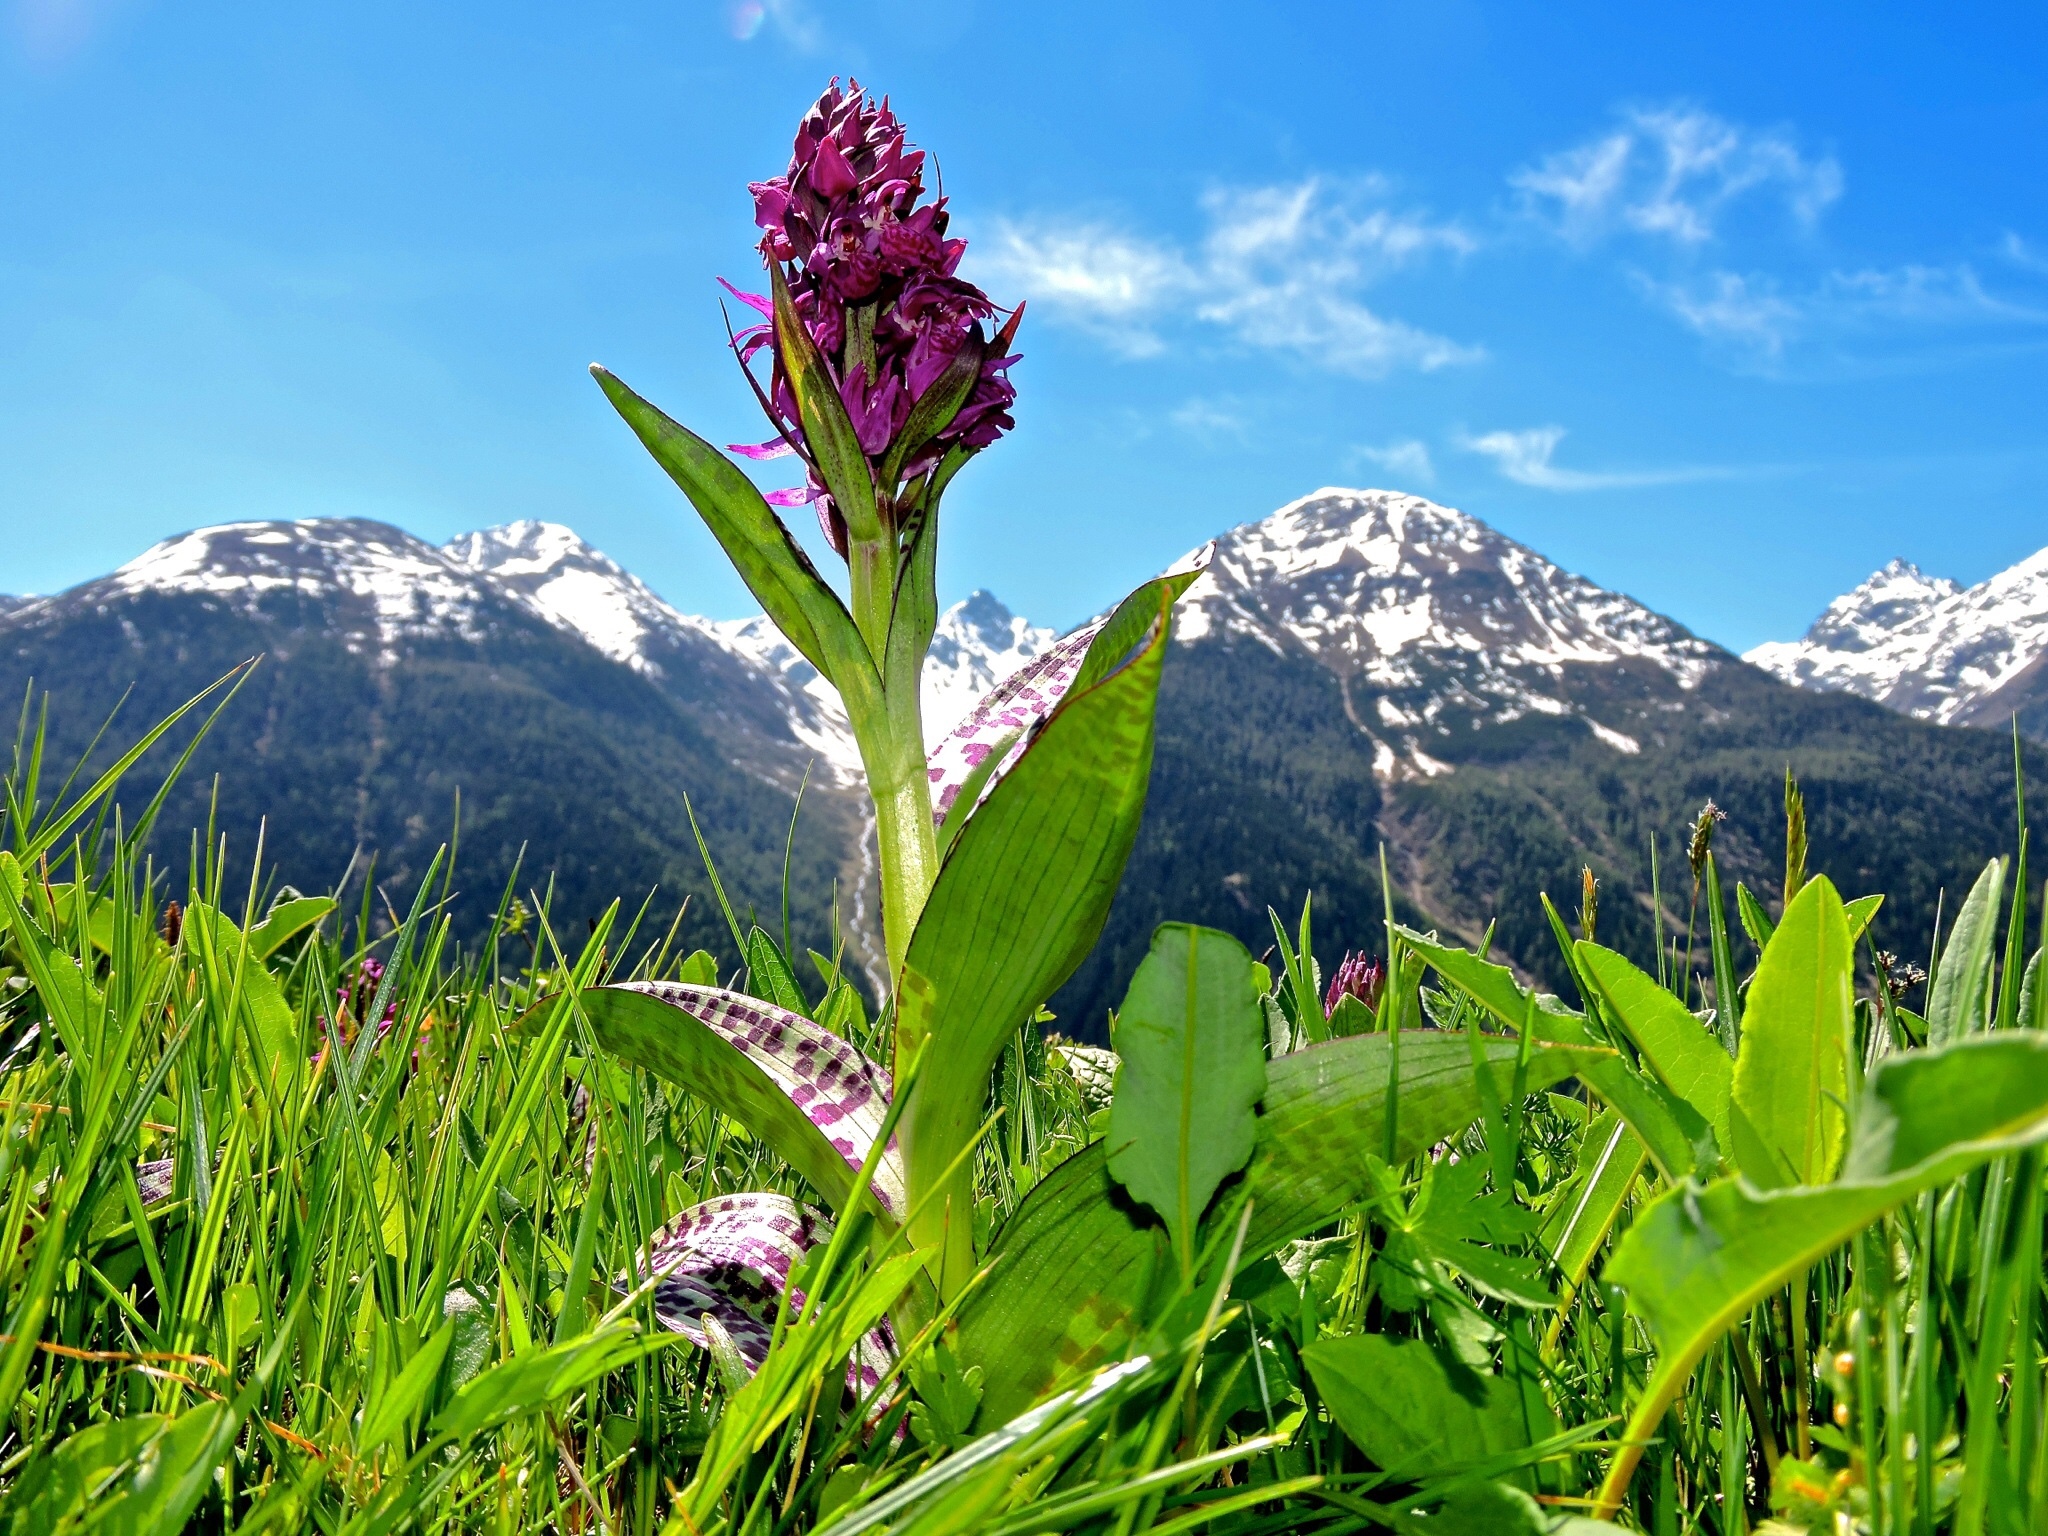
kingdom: Plantae
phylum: Tracheophyta
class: Liliopsida
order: Asparagales
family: Orchidaceae
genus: Dactylorhiza
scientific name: Dactylorhiza majalis
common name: Marsh orchid
